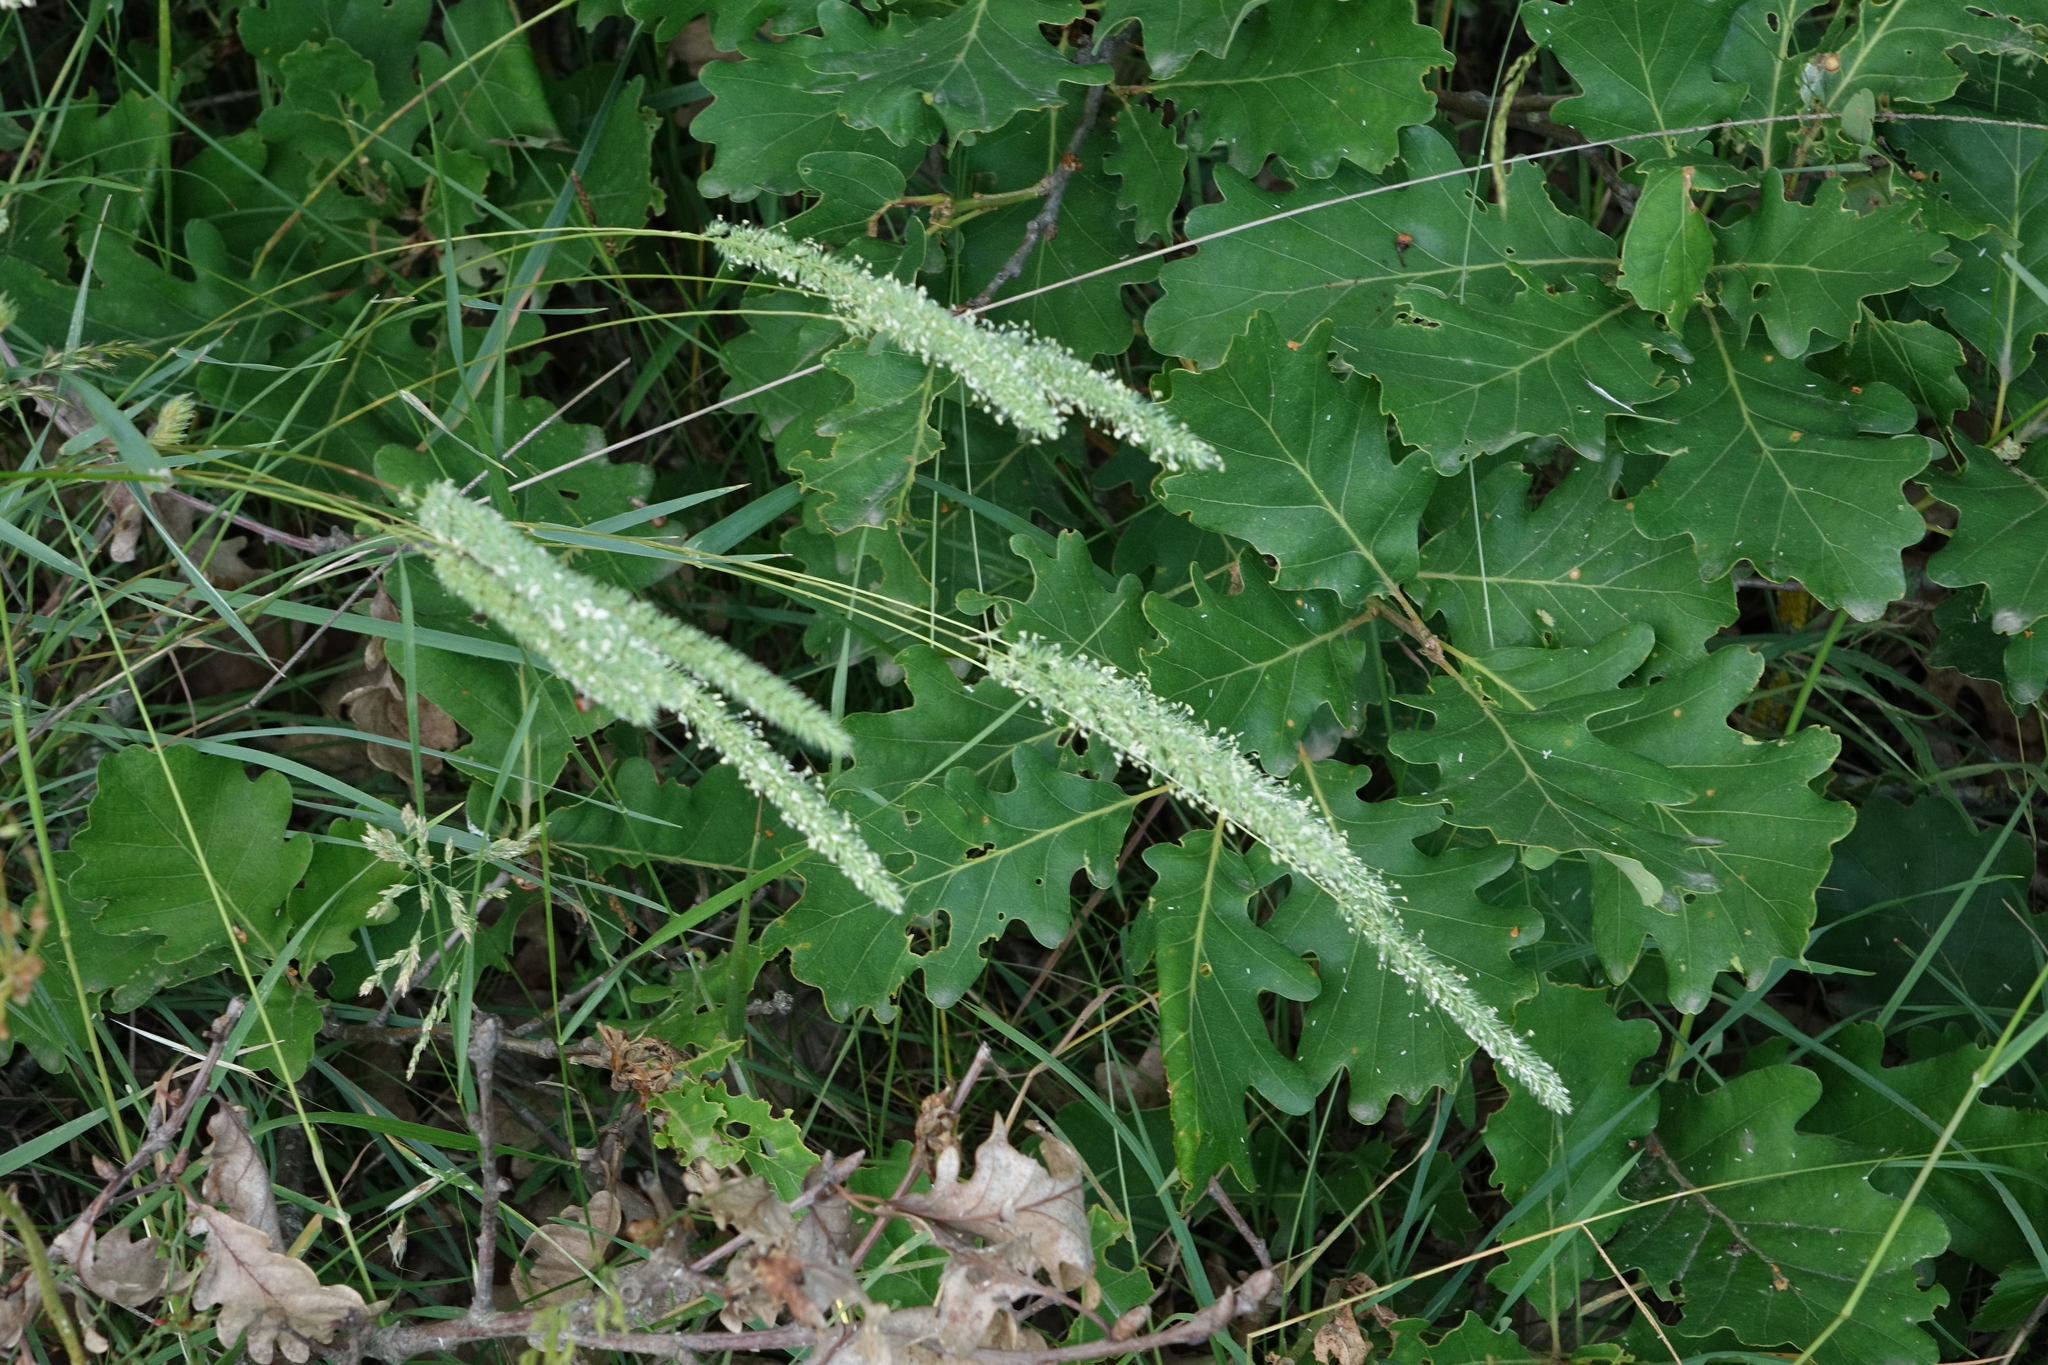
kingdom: Plantae
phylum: Tracheophyta
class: Liliopsida
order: Poales
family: Poaceae
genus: Phleum
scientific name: Phleum phleoides
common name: Purple-stem cat's-tail
